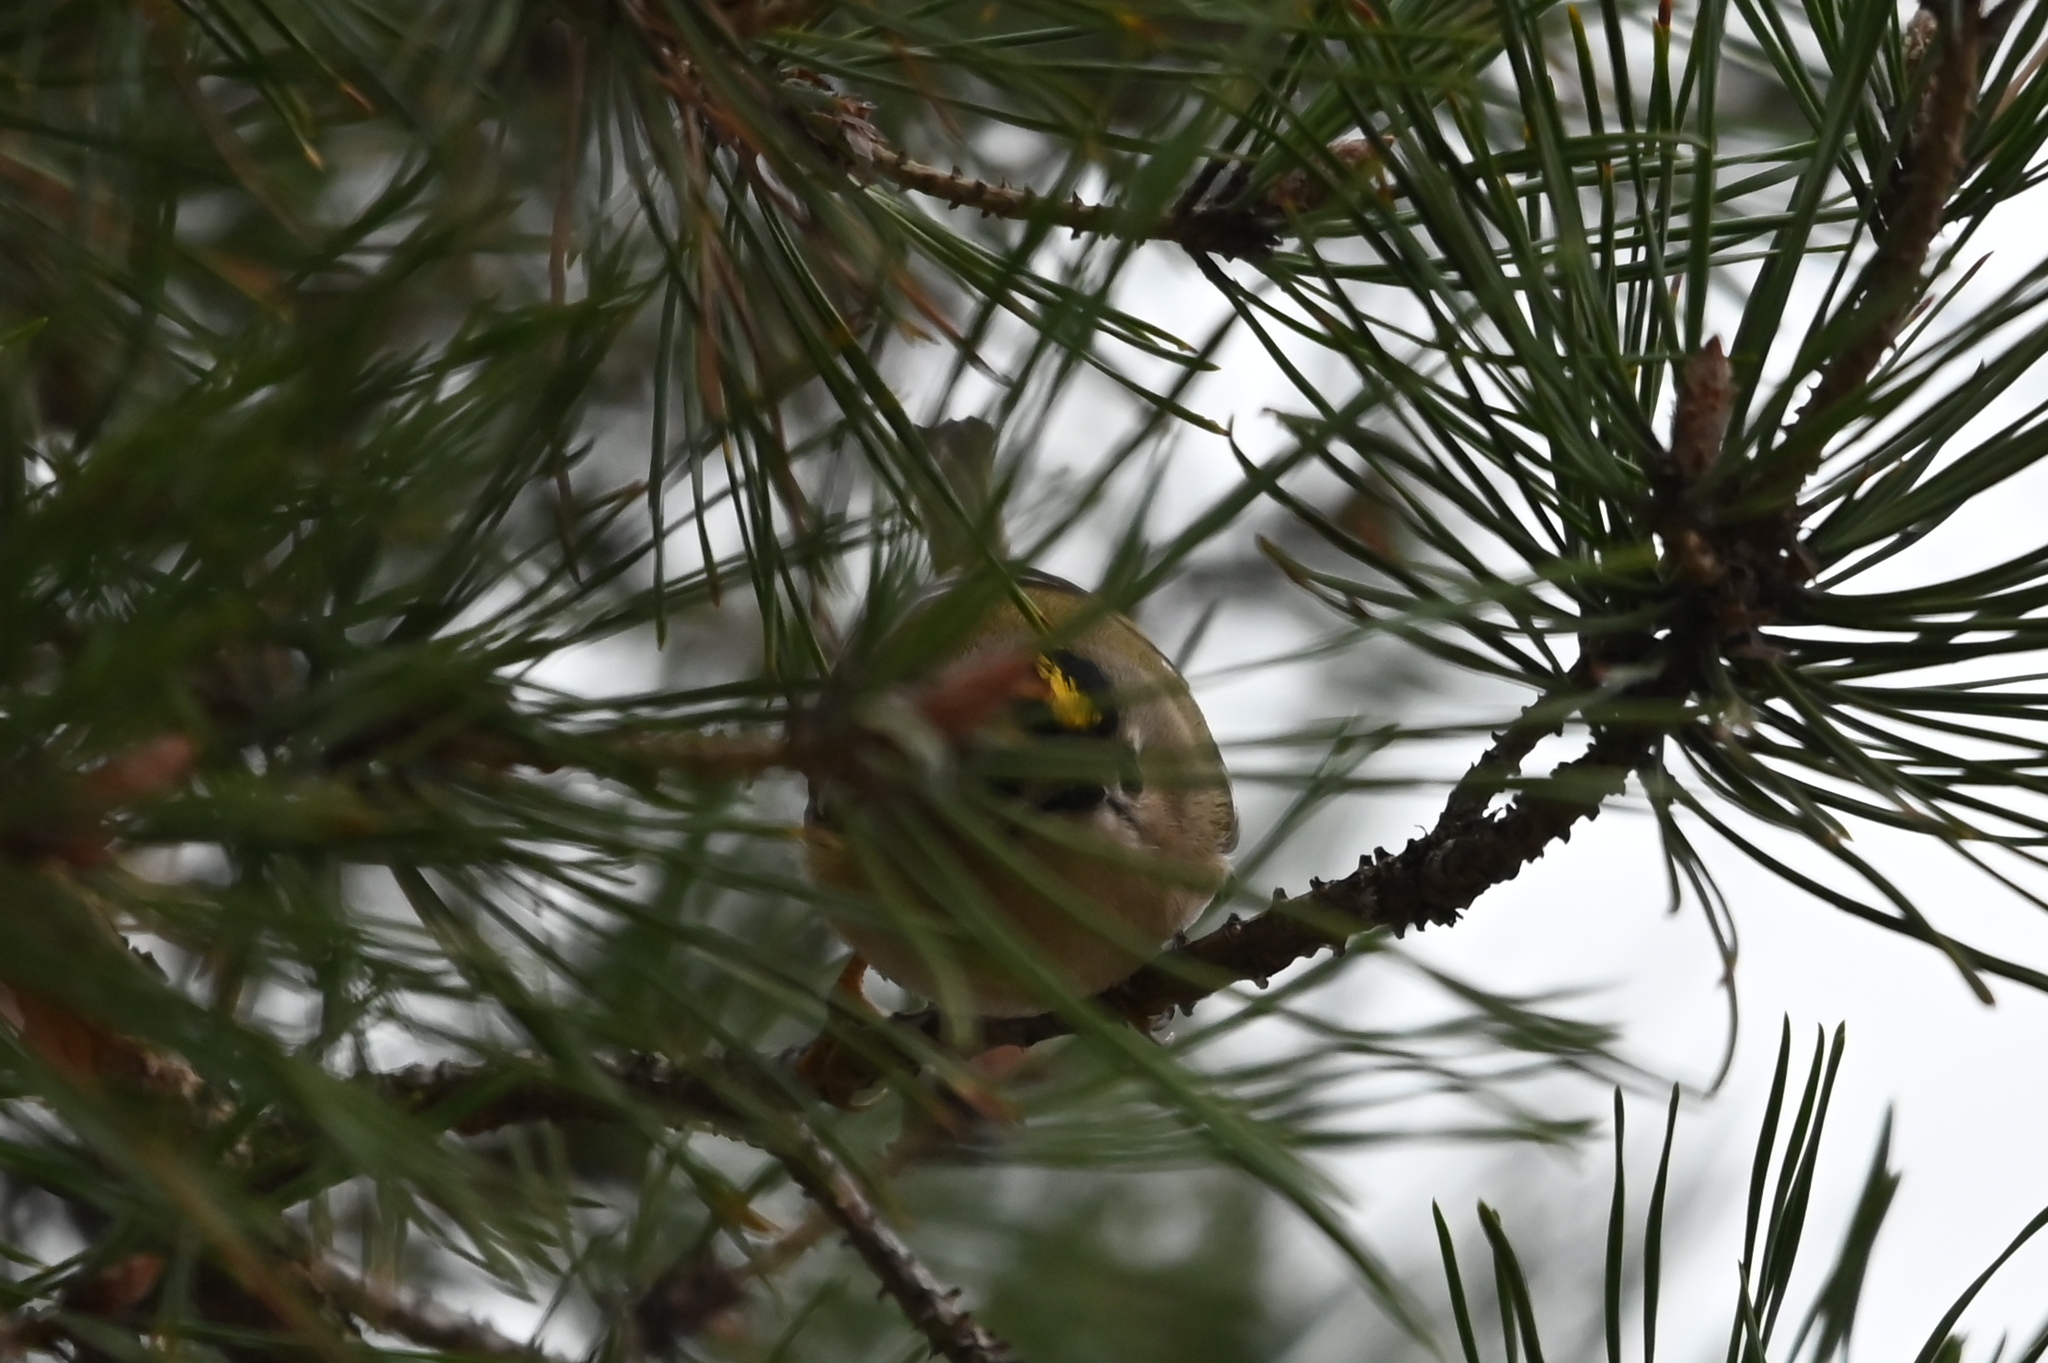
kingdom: Animalia
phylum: Chordata
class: Aves
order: Passeriformes
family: Regulidae
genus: Regulus
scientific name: Regulus regulus
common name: Goldcrest
